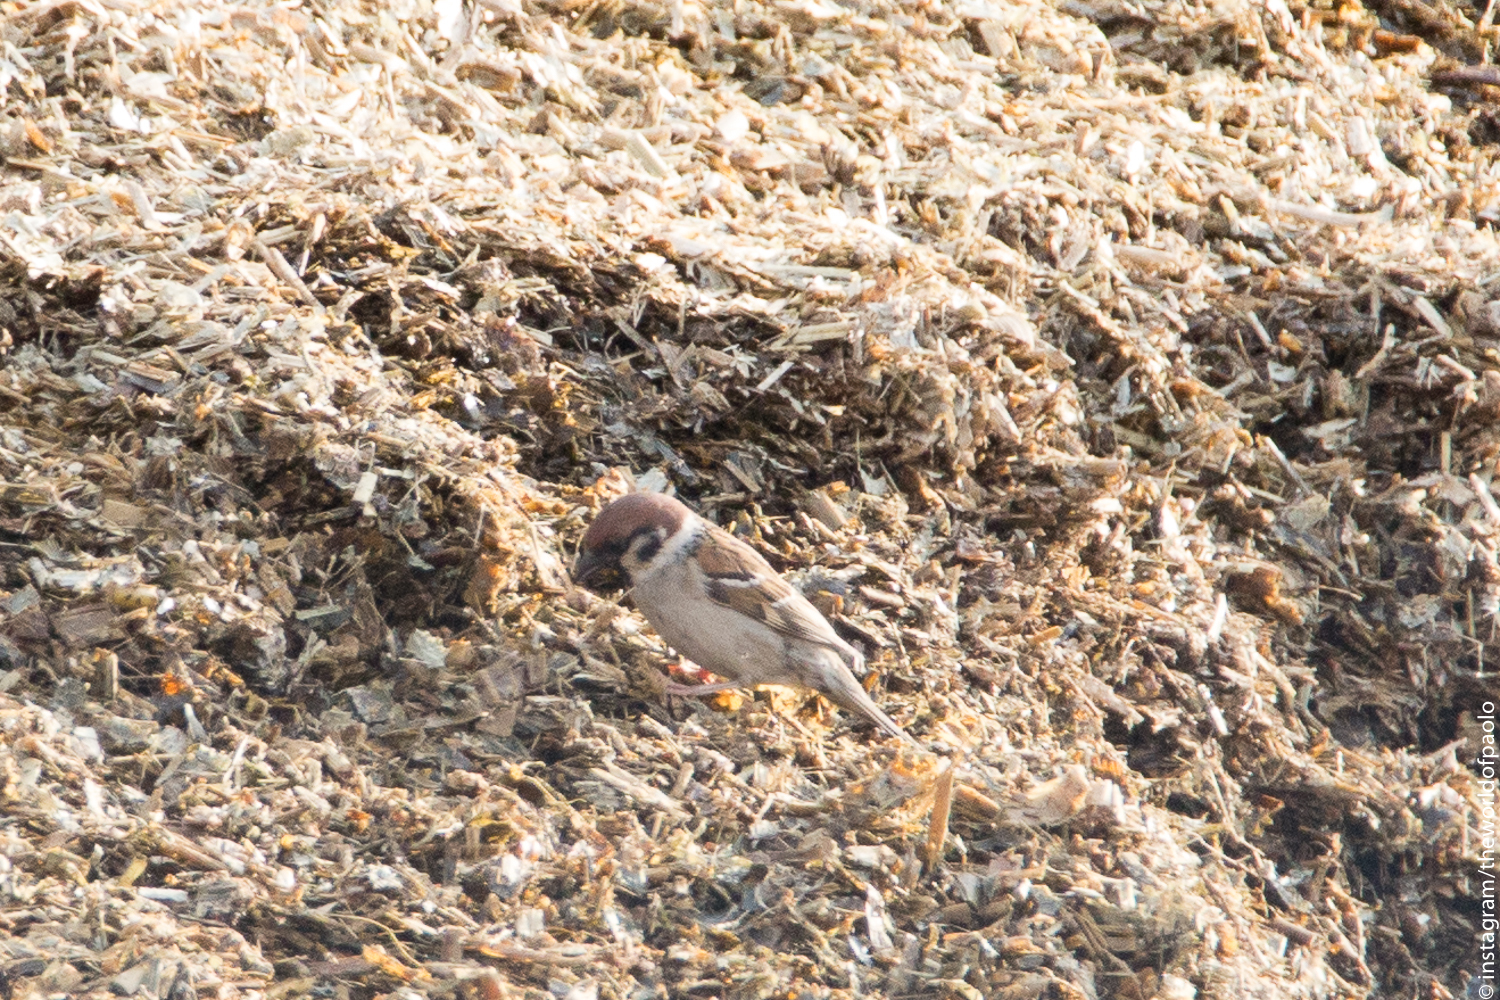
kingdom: Animalia
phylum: Chordata
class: Aves
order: Passeriformes
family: Passeridae
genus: Passer
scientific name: Passer montanus
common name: Eurasian tree sparrow
